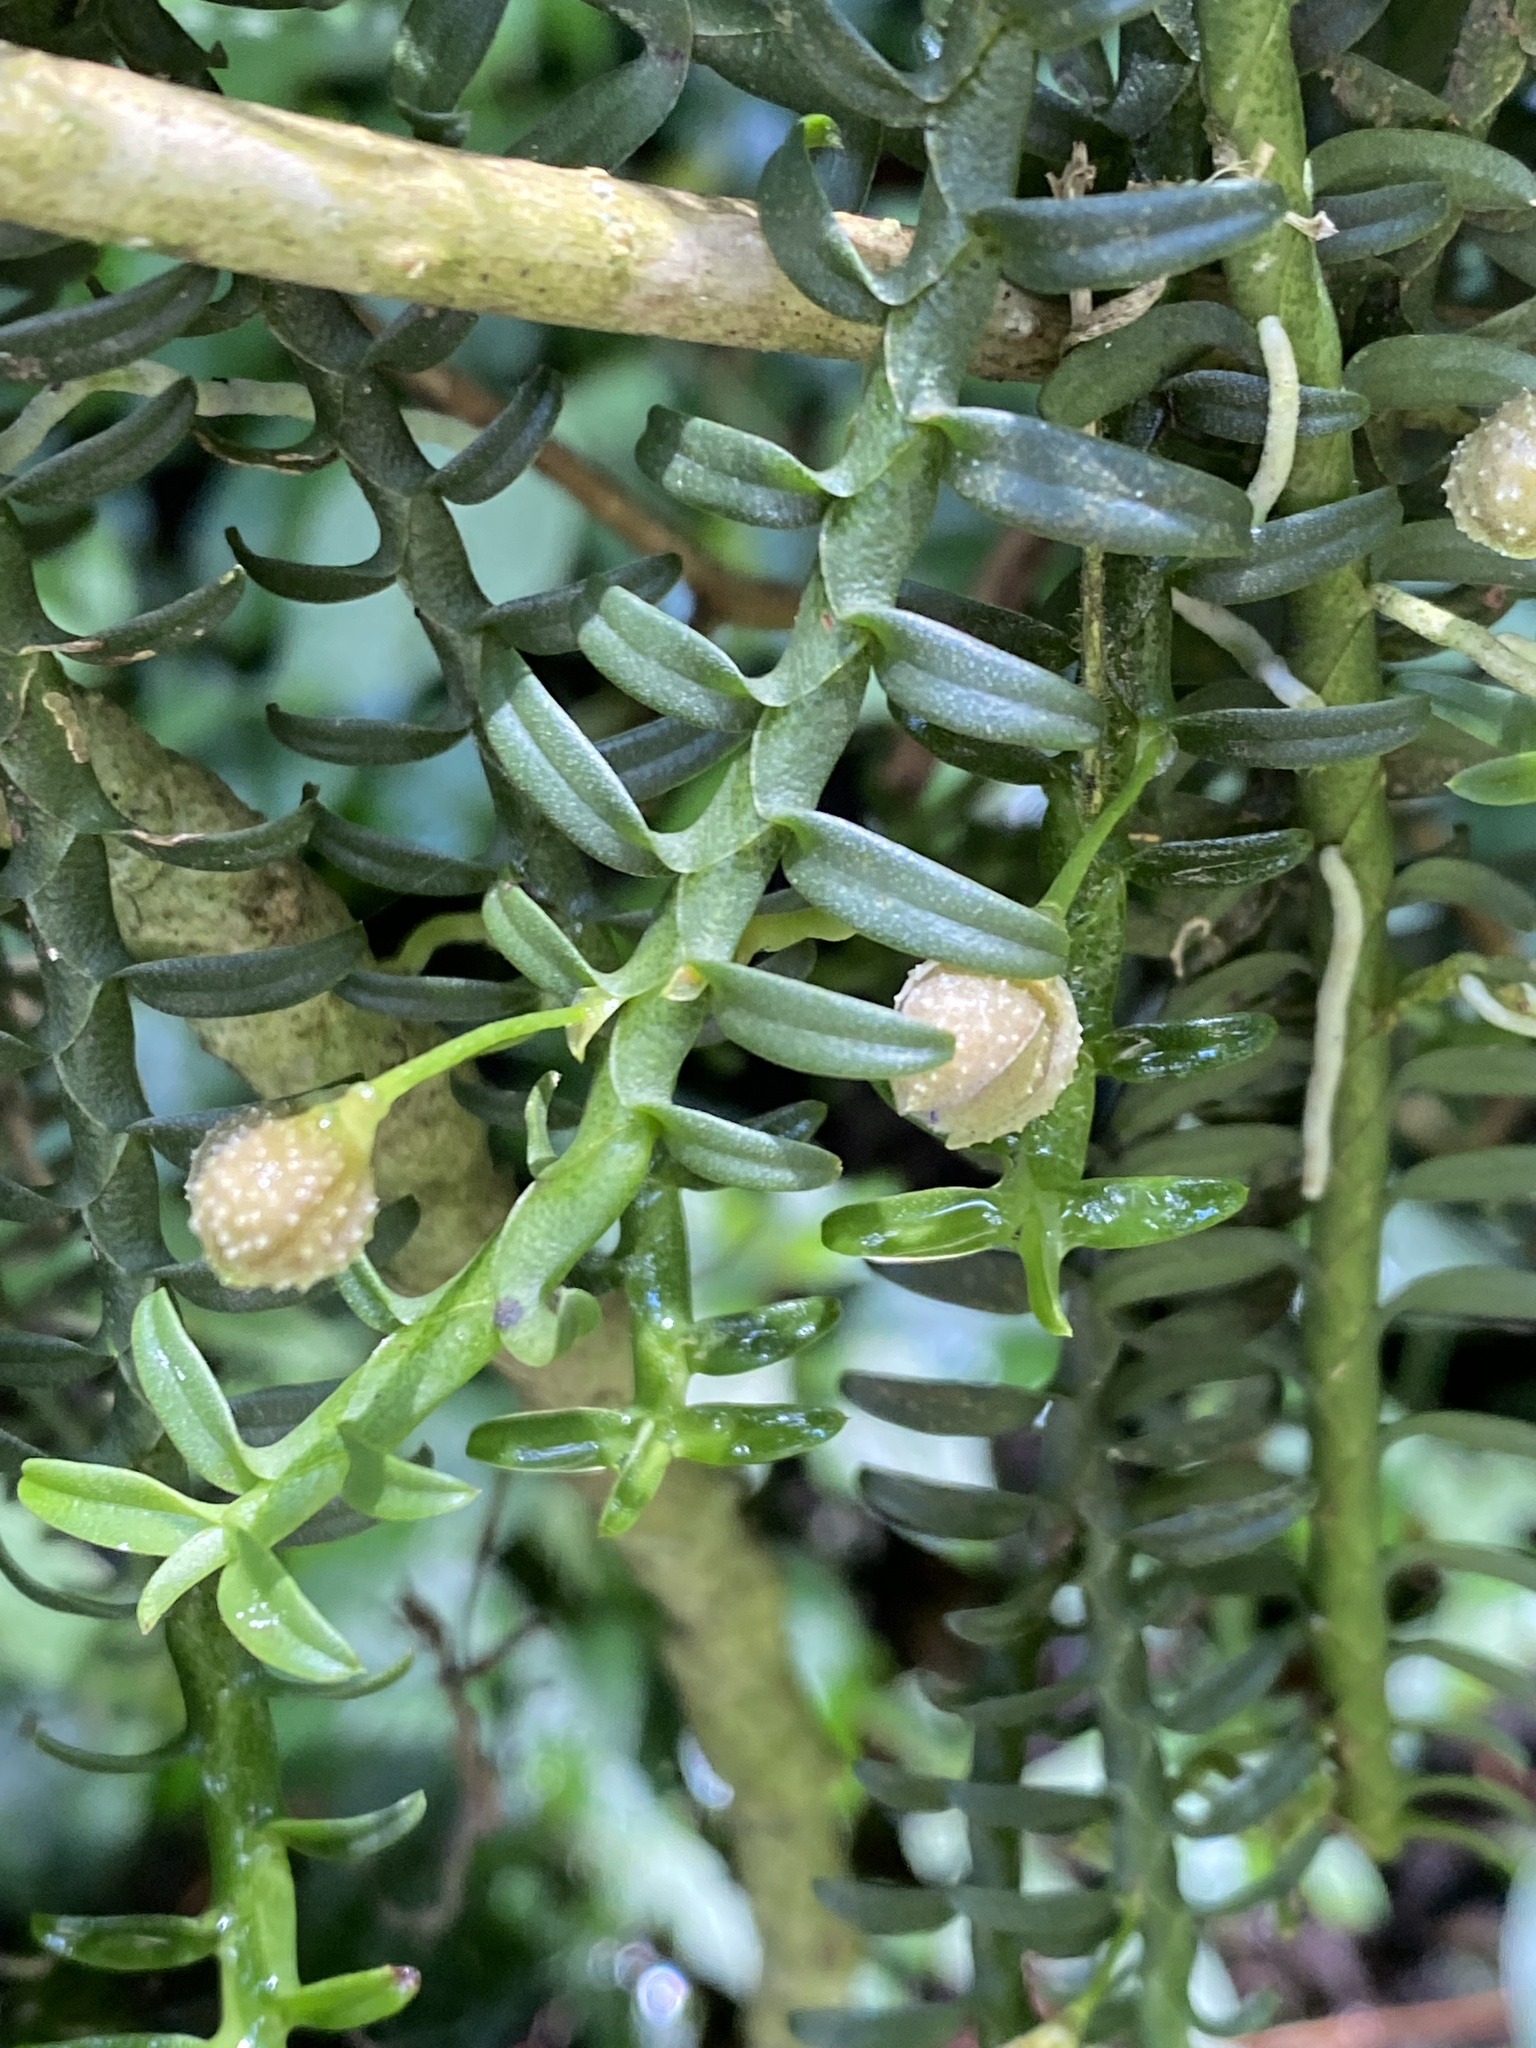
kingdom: Plantae
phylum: Tracheophyta
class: Liliopsida
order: Asparagales
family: Orchidaceae
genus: Dichaea
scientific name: Dichaea squarrosa
